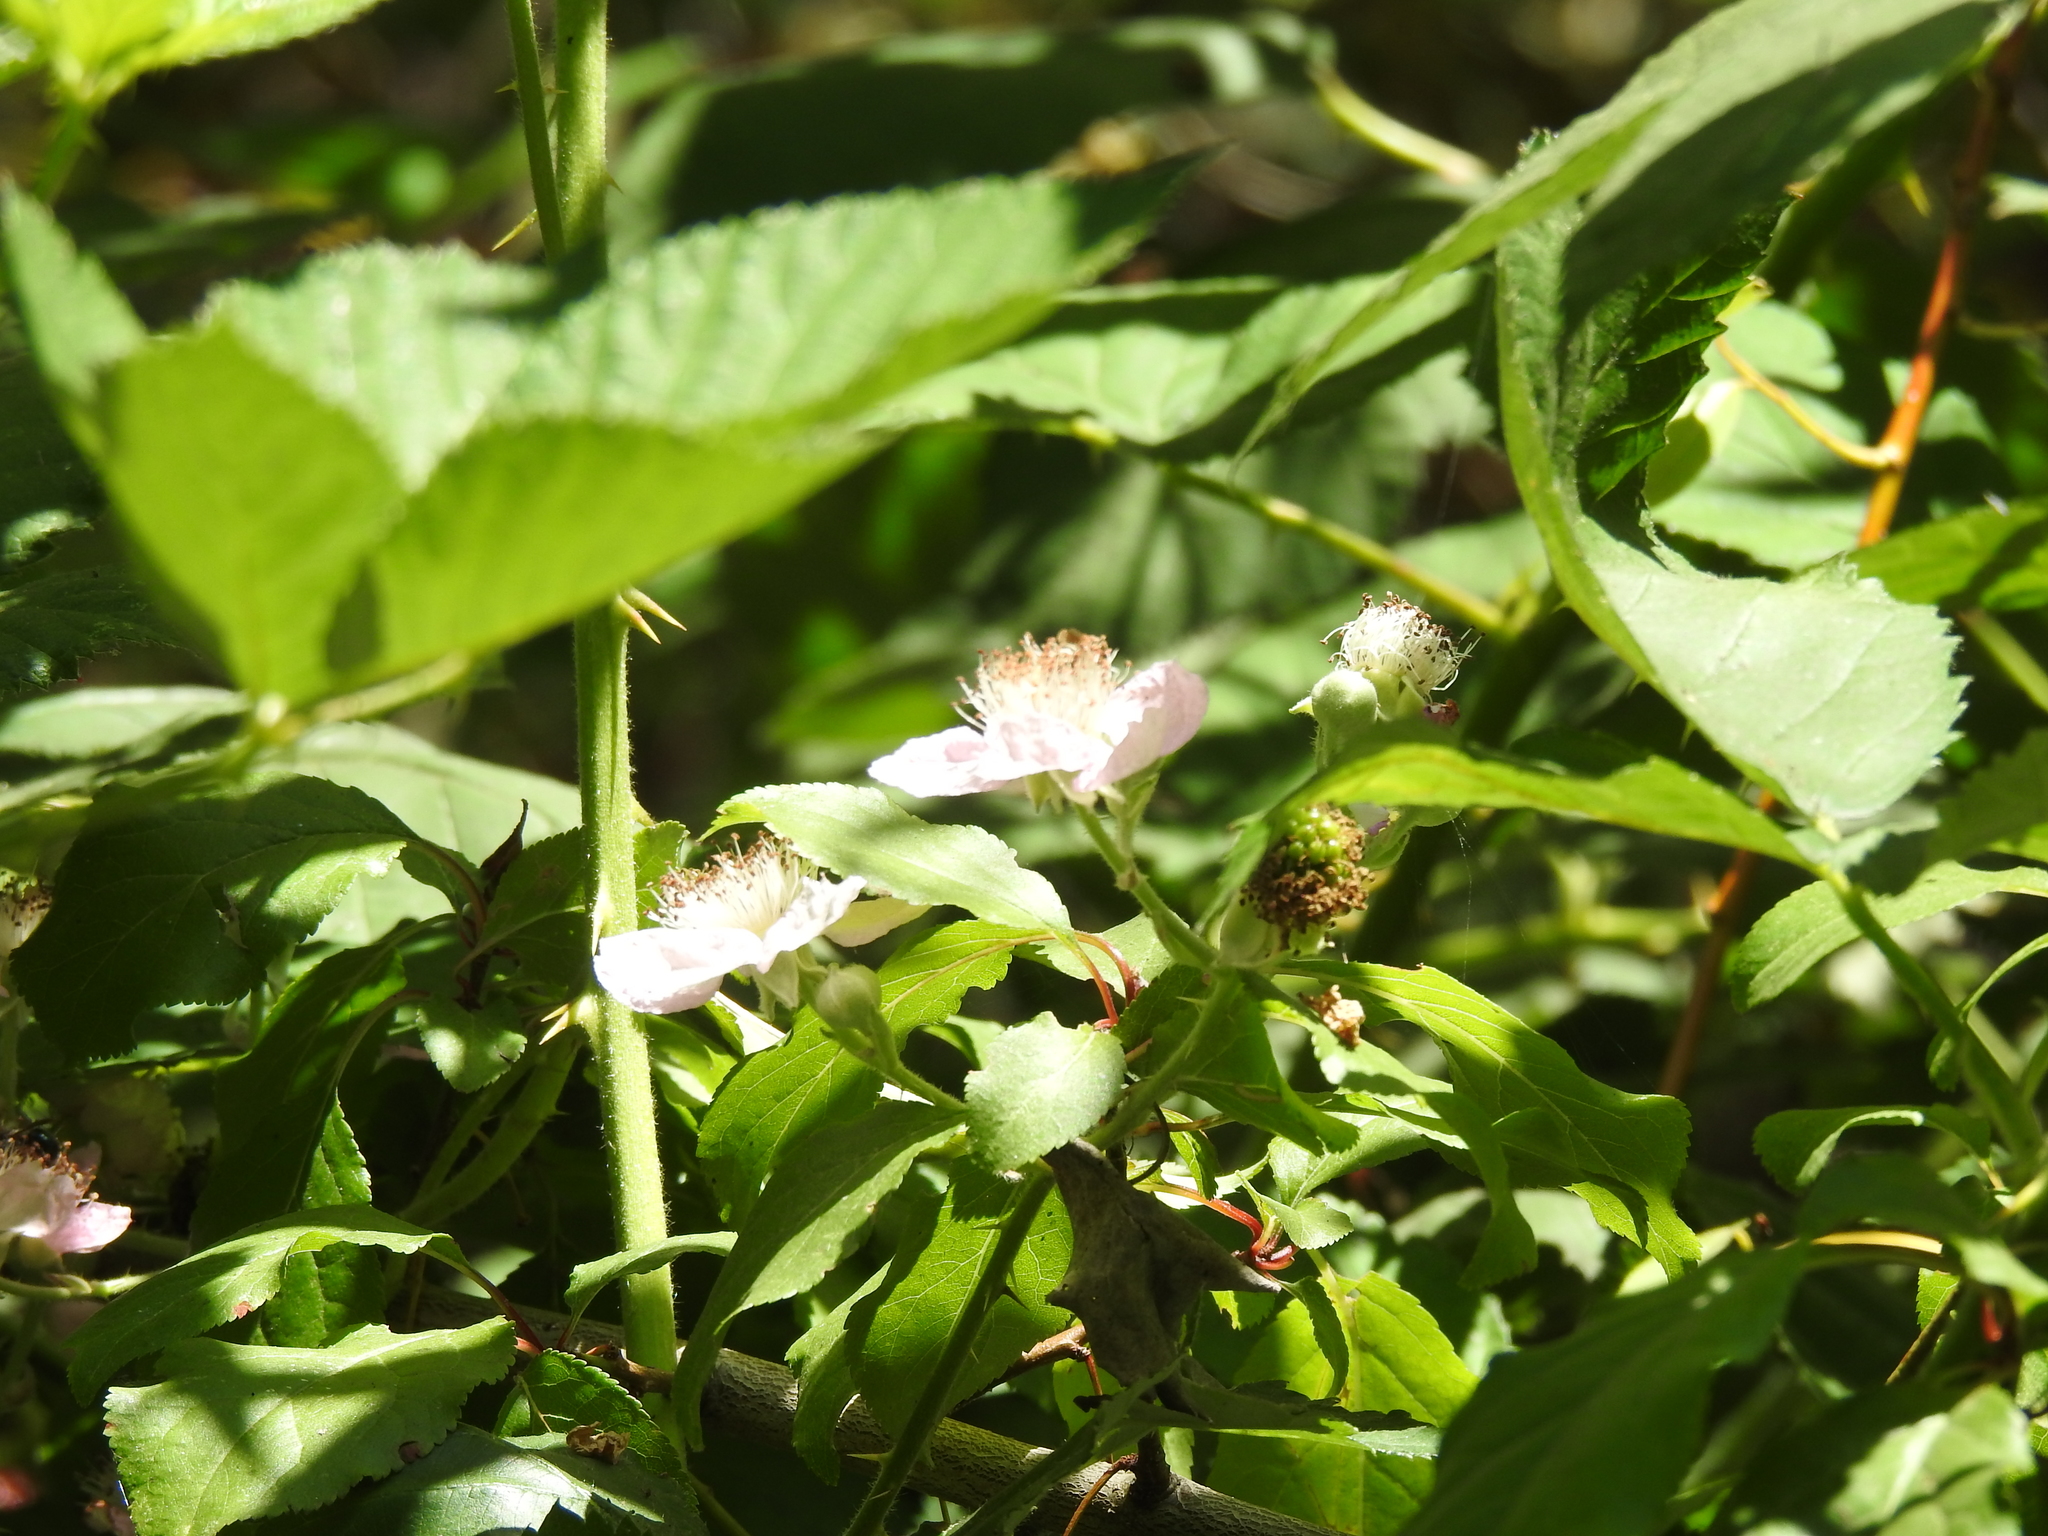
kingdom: Plantae
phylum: Tracheophyta
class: Magnoliopsida
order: Rosales
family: Rosaceae
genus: Rubus
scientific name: Rubus armeniacus
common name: Himalayan blackberry
